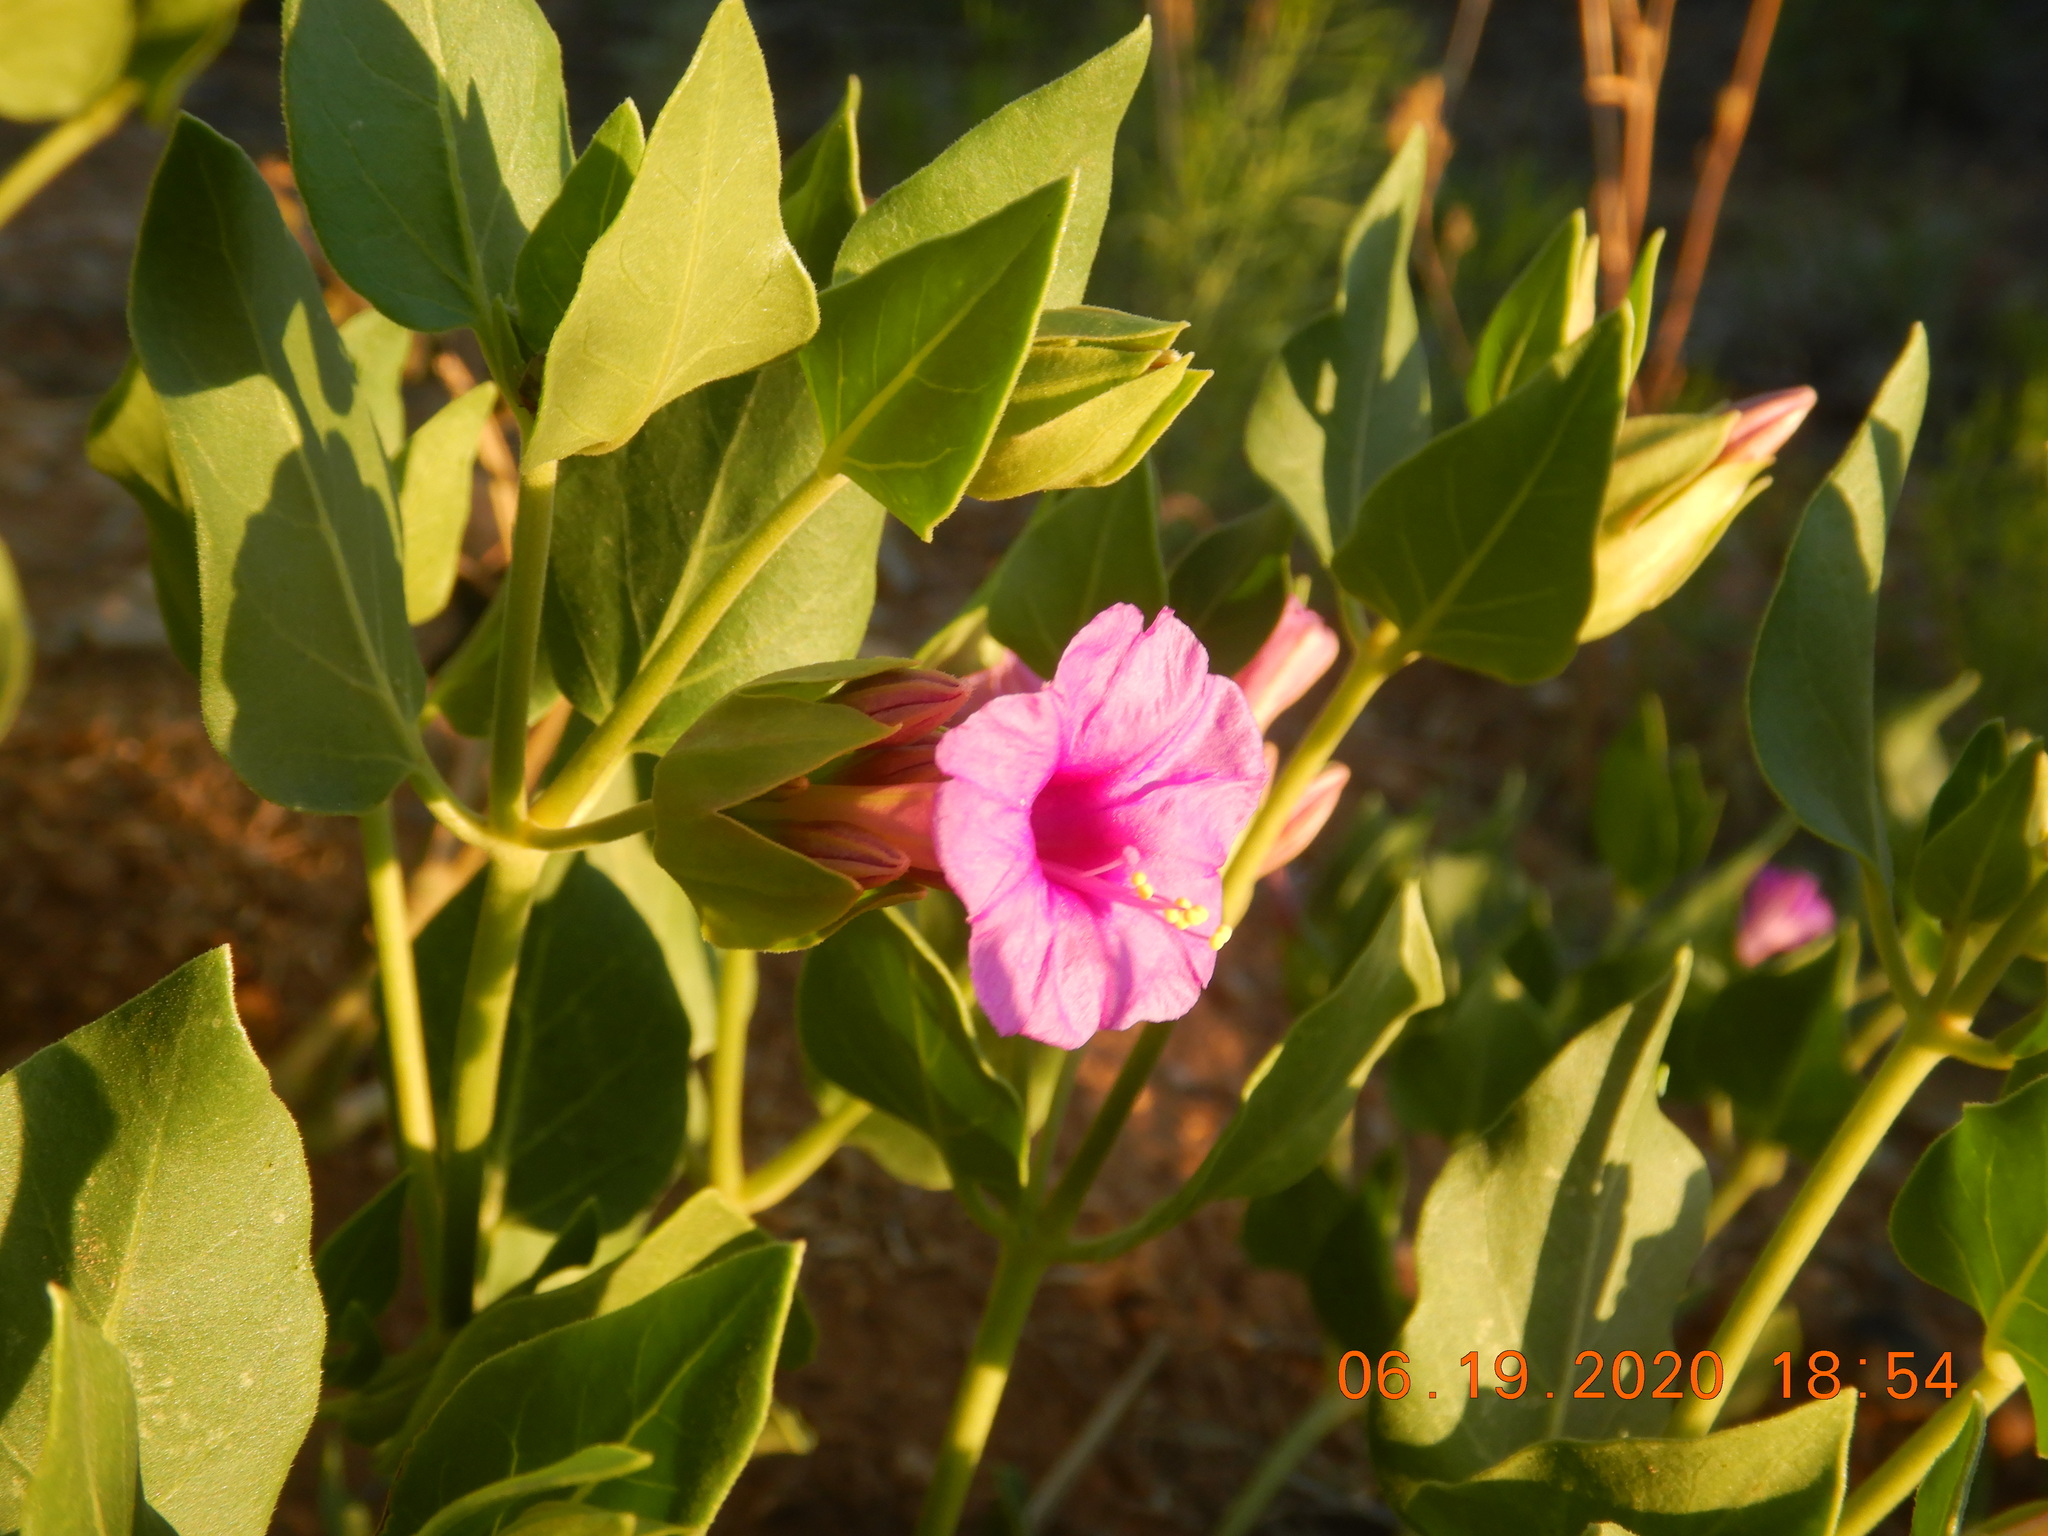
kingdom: Plantae
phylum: Tracheophyta
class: Magnoliopsida
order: Caryophyllales
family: Nyctaginaceae
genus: Mirabilis
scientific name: Mirabilis multiflora
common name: Froebel's four-o'clock
